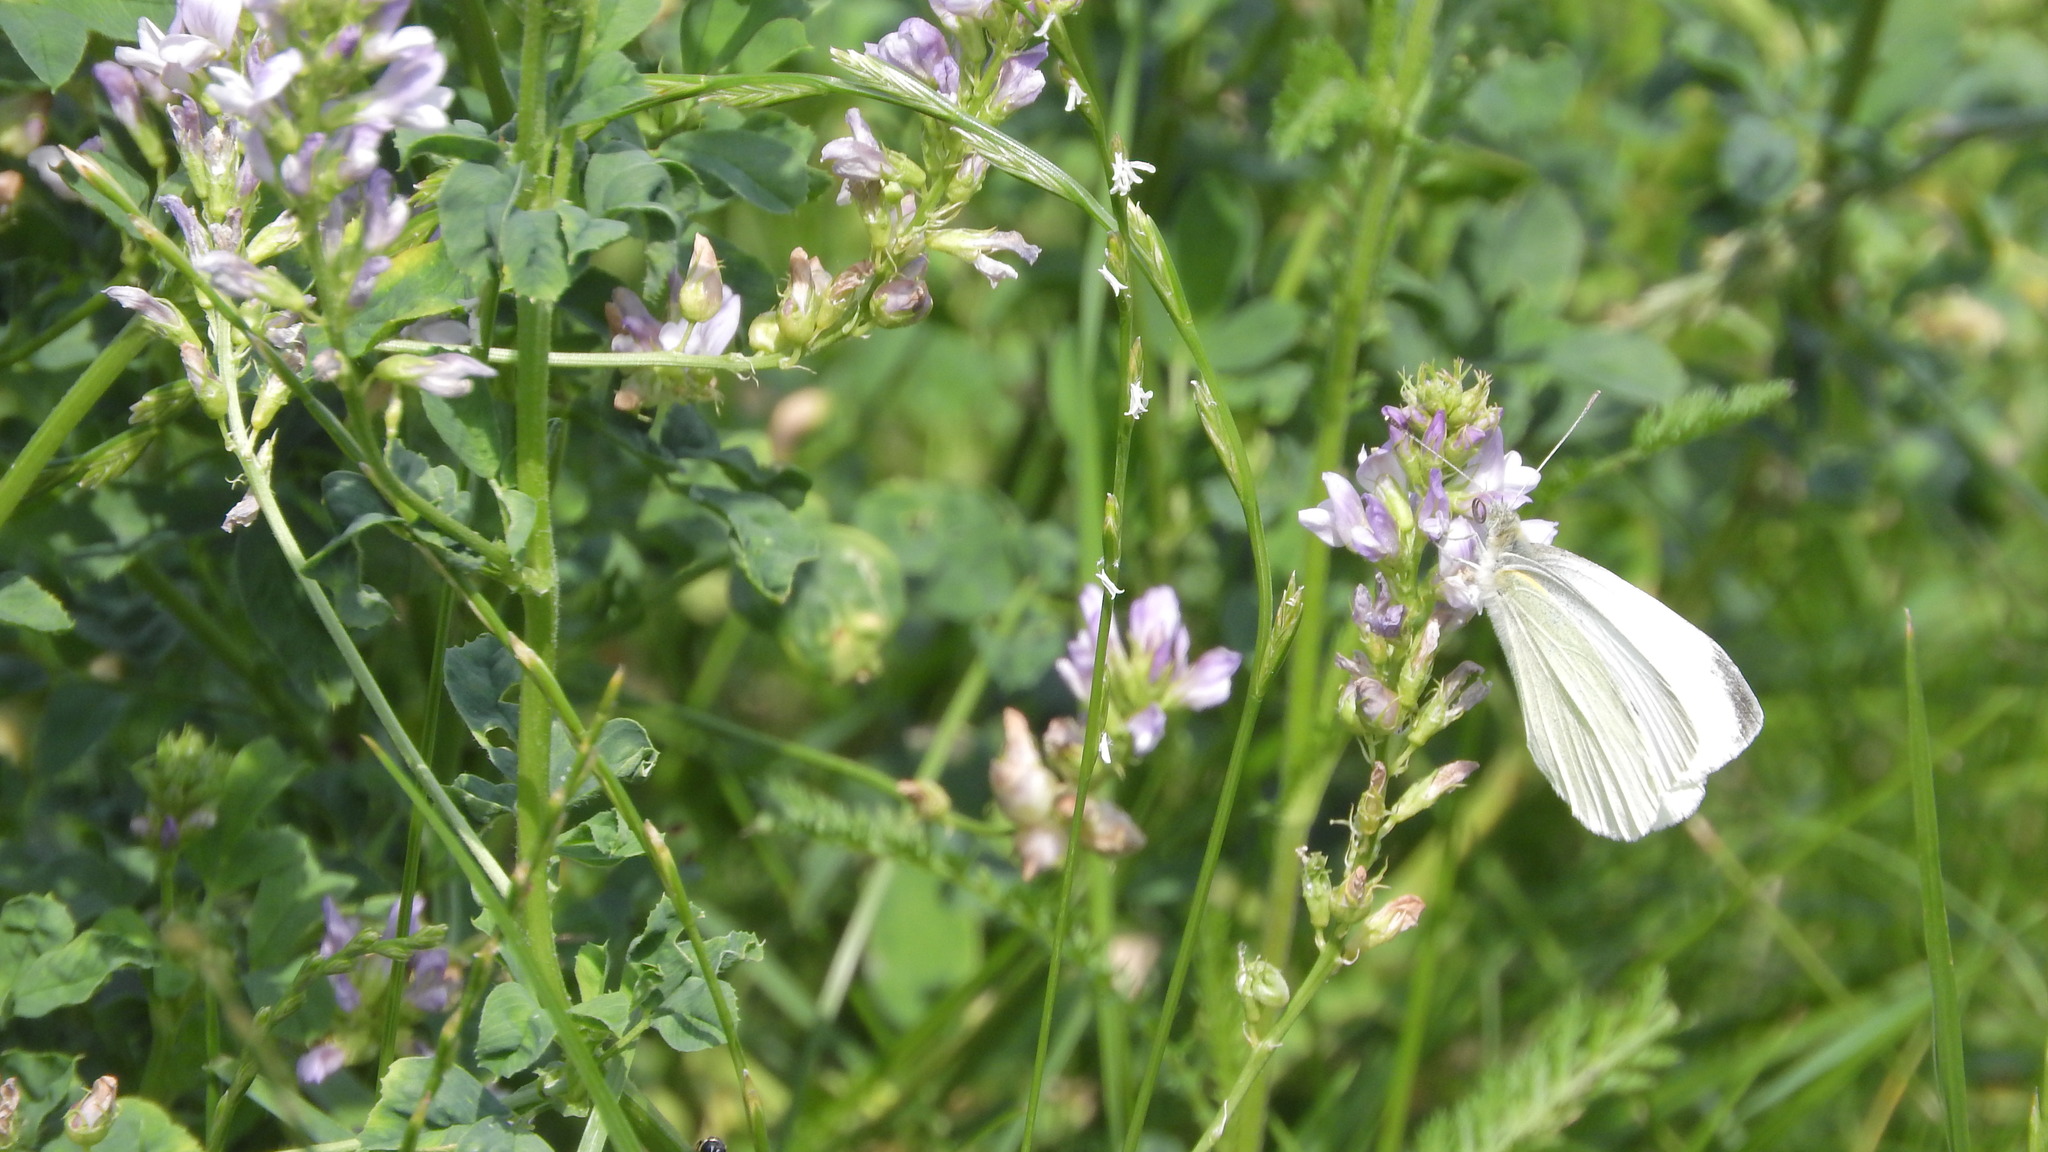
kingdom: Animalia
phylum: Arthropoda
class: Insecta
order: Lepidoptera
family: Pieridae
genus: Pieris
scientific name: Pieris rapae
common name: Small white
